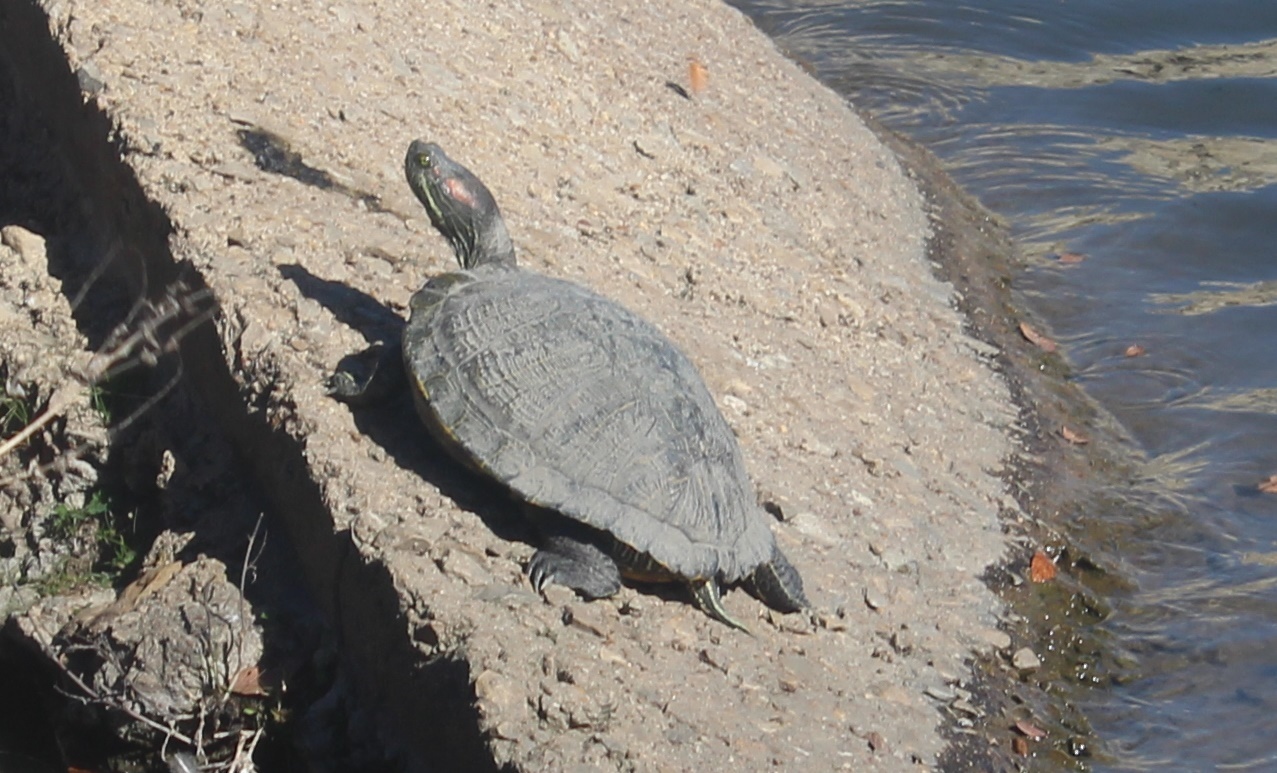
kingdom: Animalia
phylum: Chordata
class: Testudines
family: Emydidae
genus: Trachemys
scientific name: Trachemys scripta
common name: Slider
